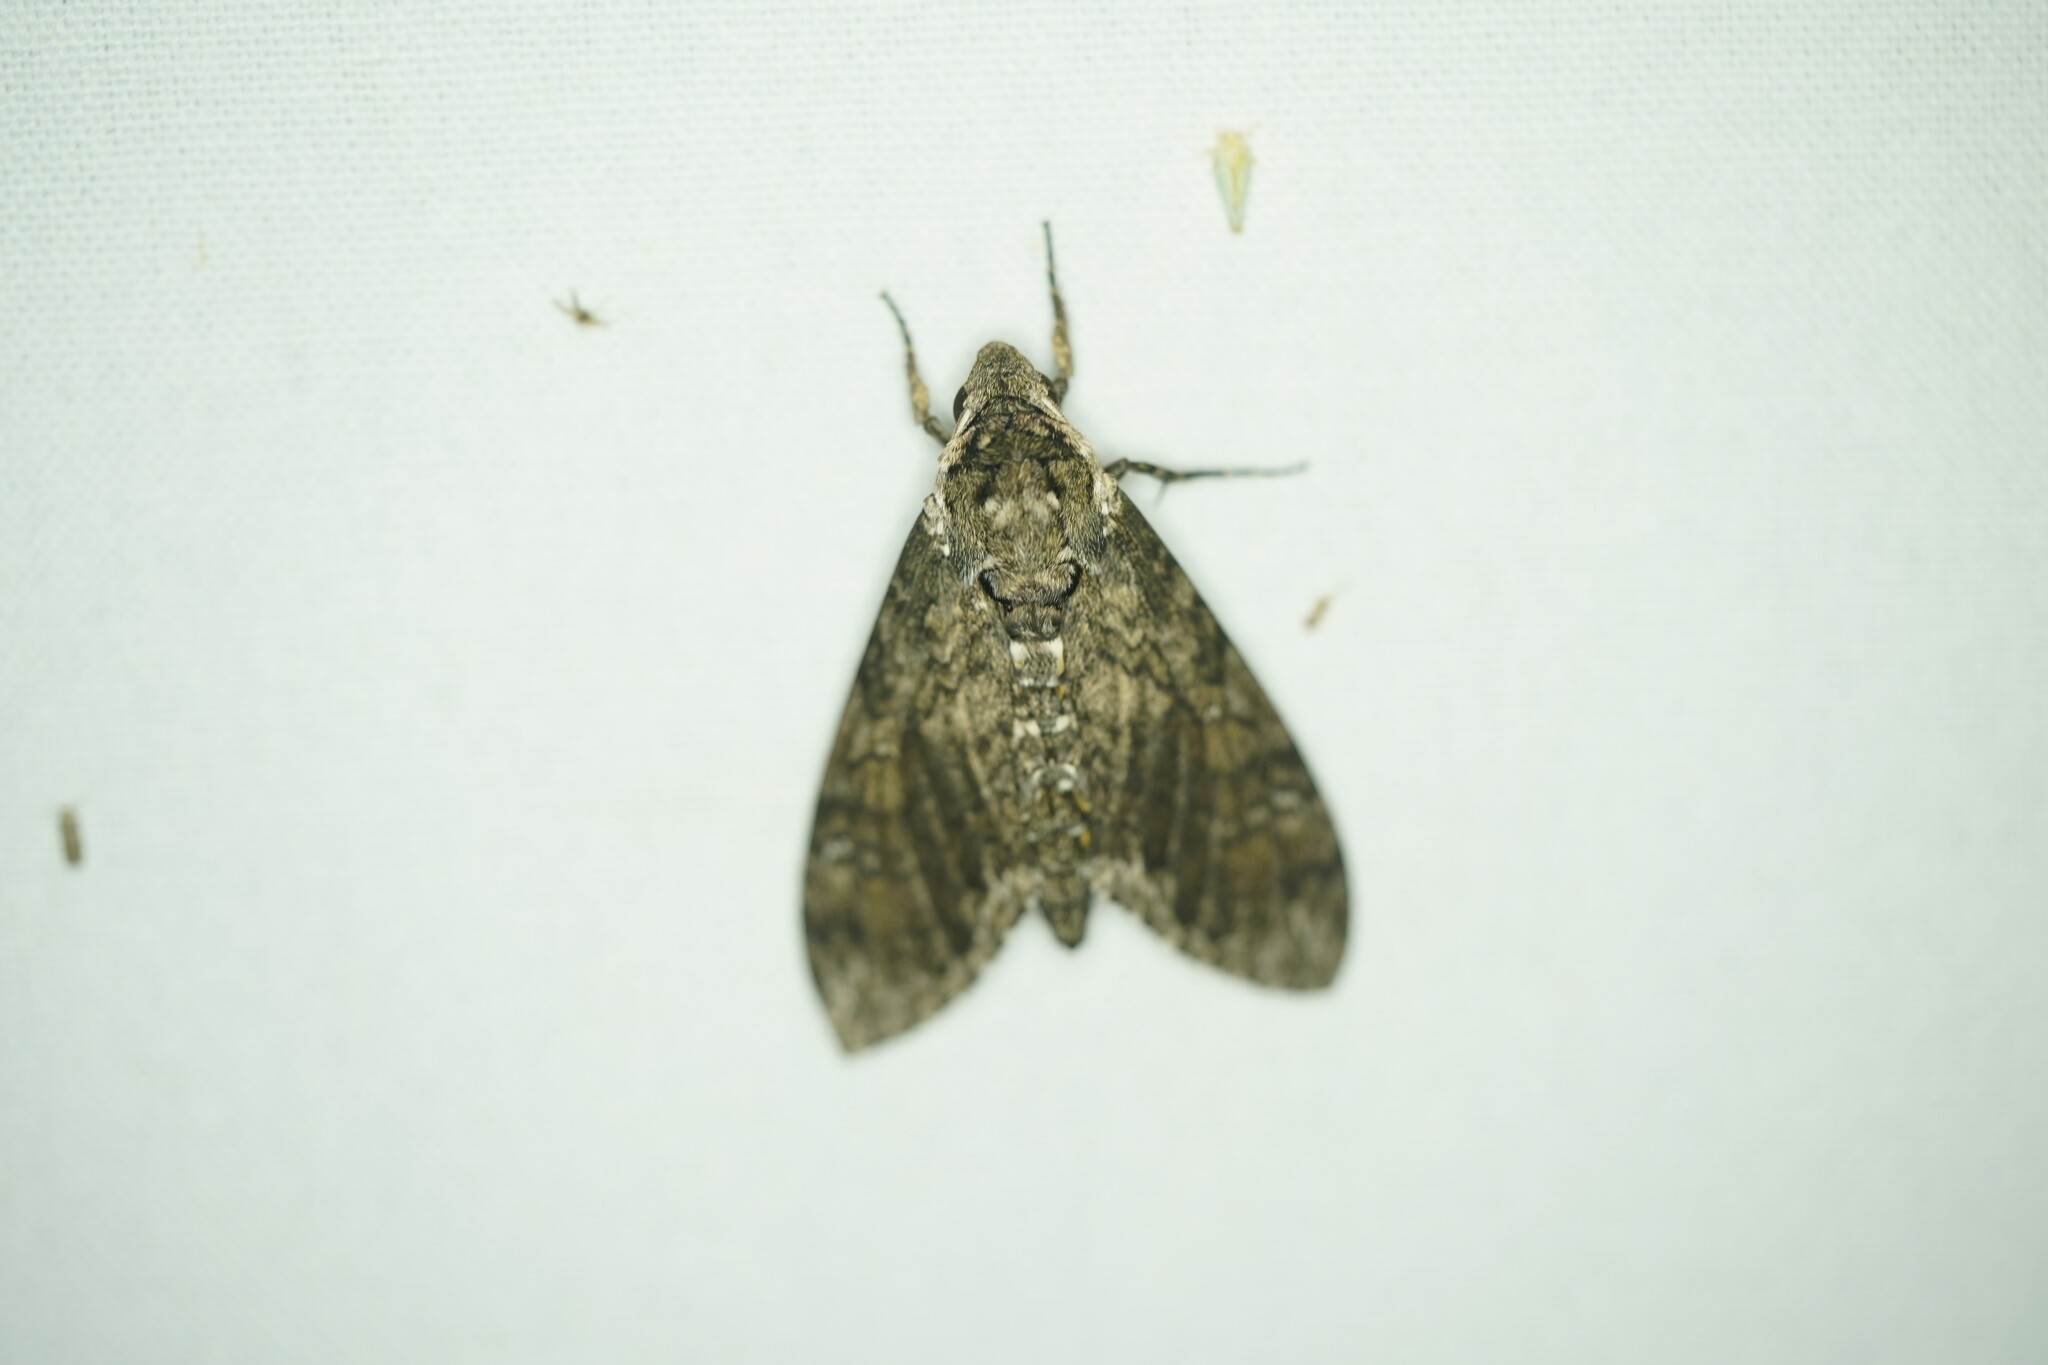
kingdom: Animalia
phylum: Arthropoda
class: Insecta
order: Lepidoptera
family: Sphingidae
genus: Manduca
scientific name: Manduca sexta
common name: Carolina sphinx
